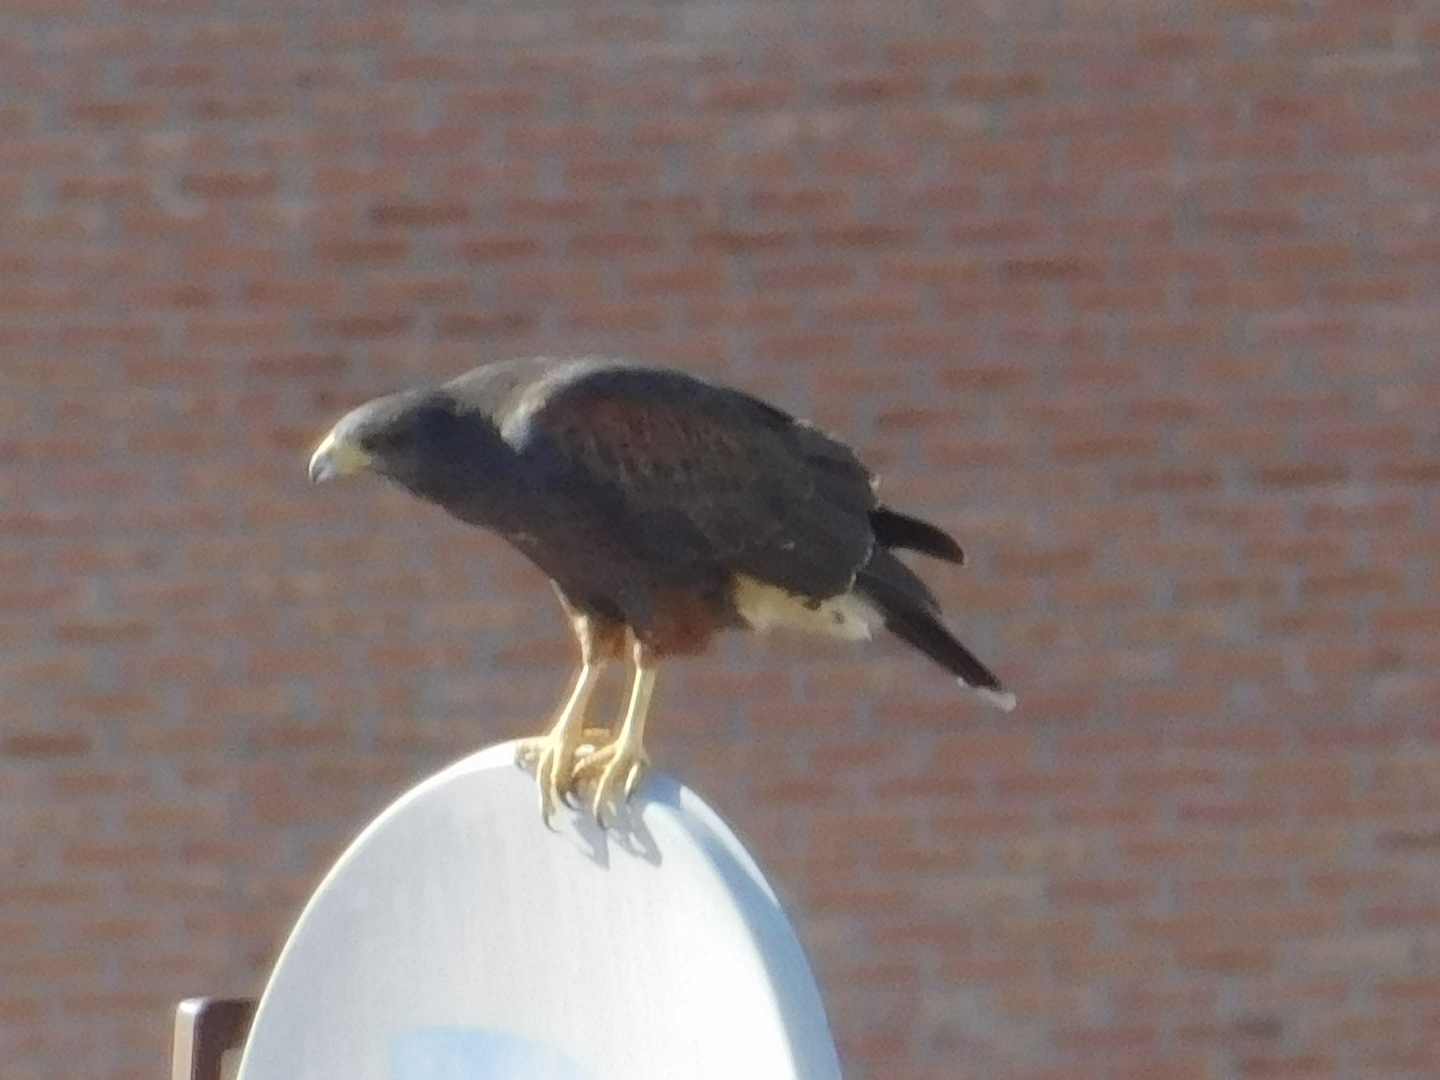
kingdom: Animalia
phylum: Chordata
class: Aves
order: Accipitriformes
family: Accipitridae
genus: Parabuteo
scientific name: Parabuteo unicinctus
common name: Harris's hawk
